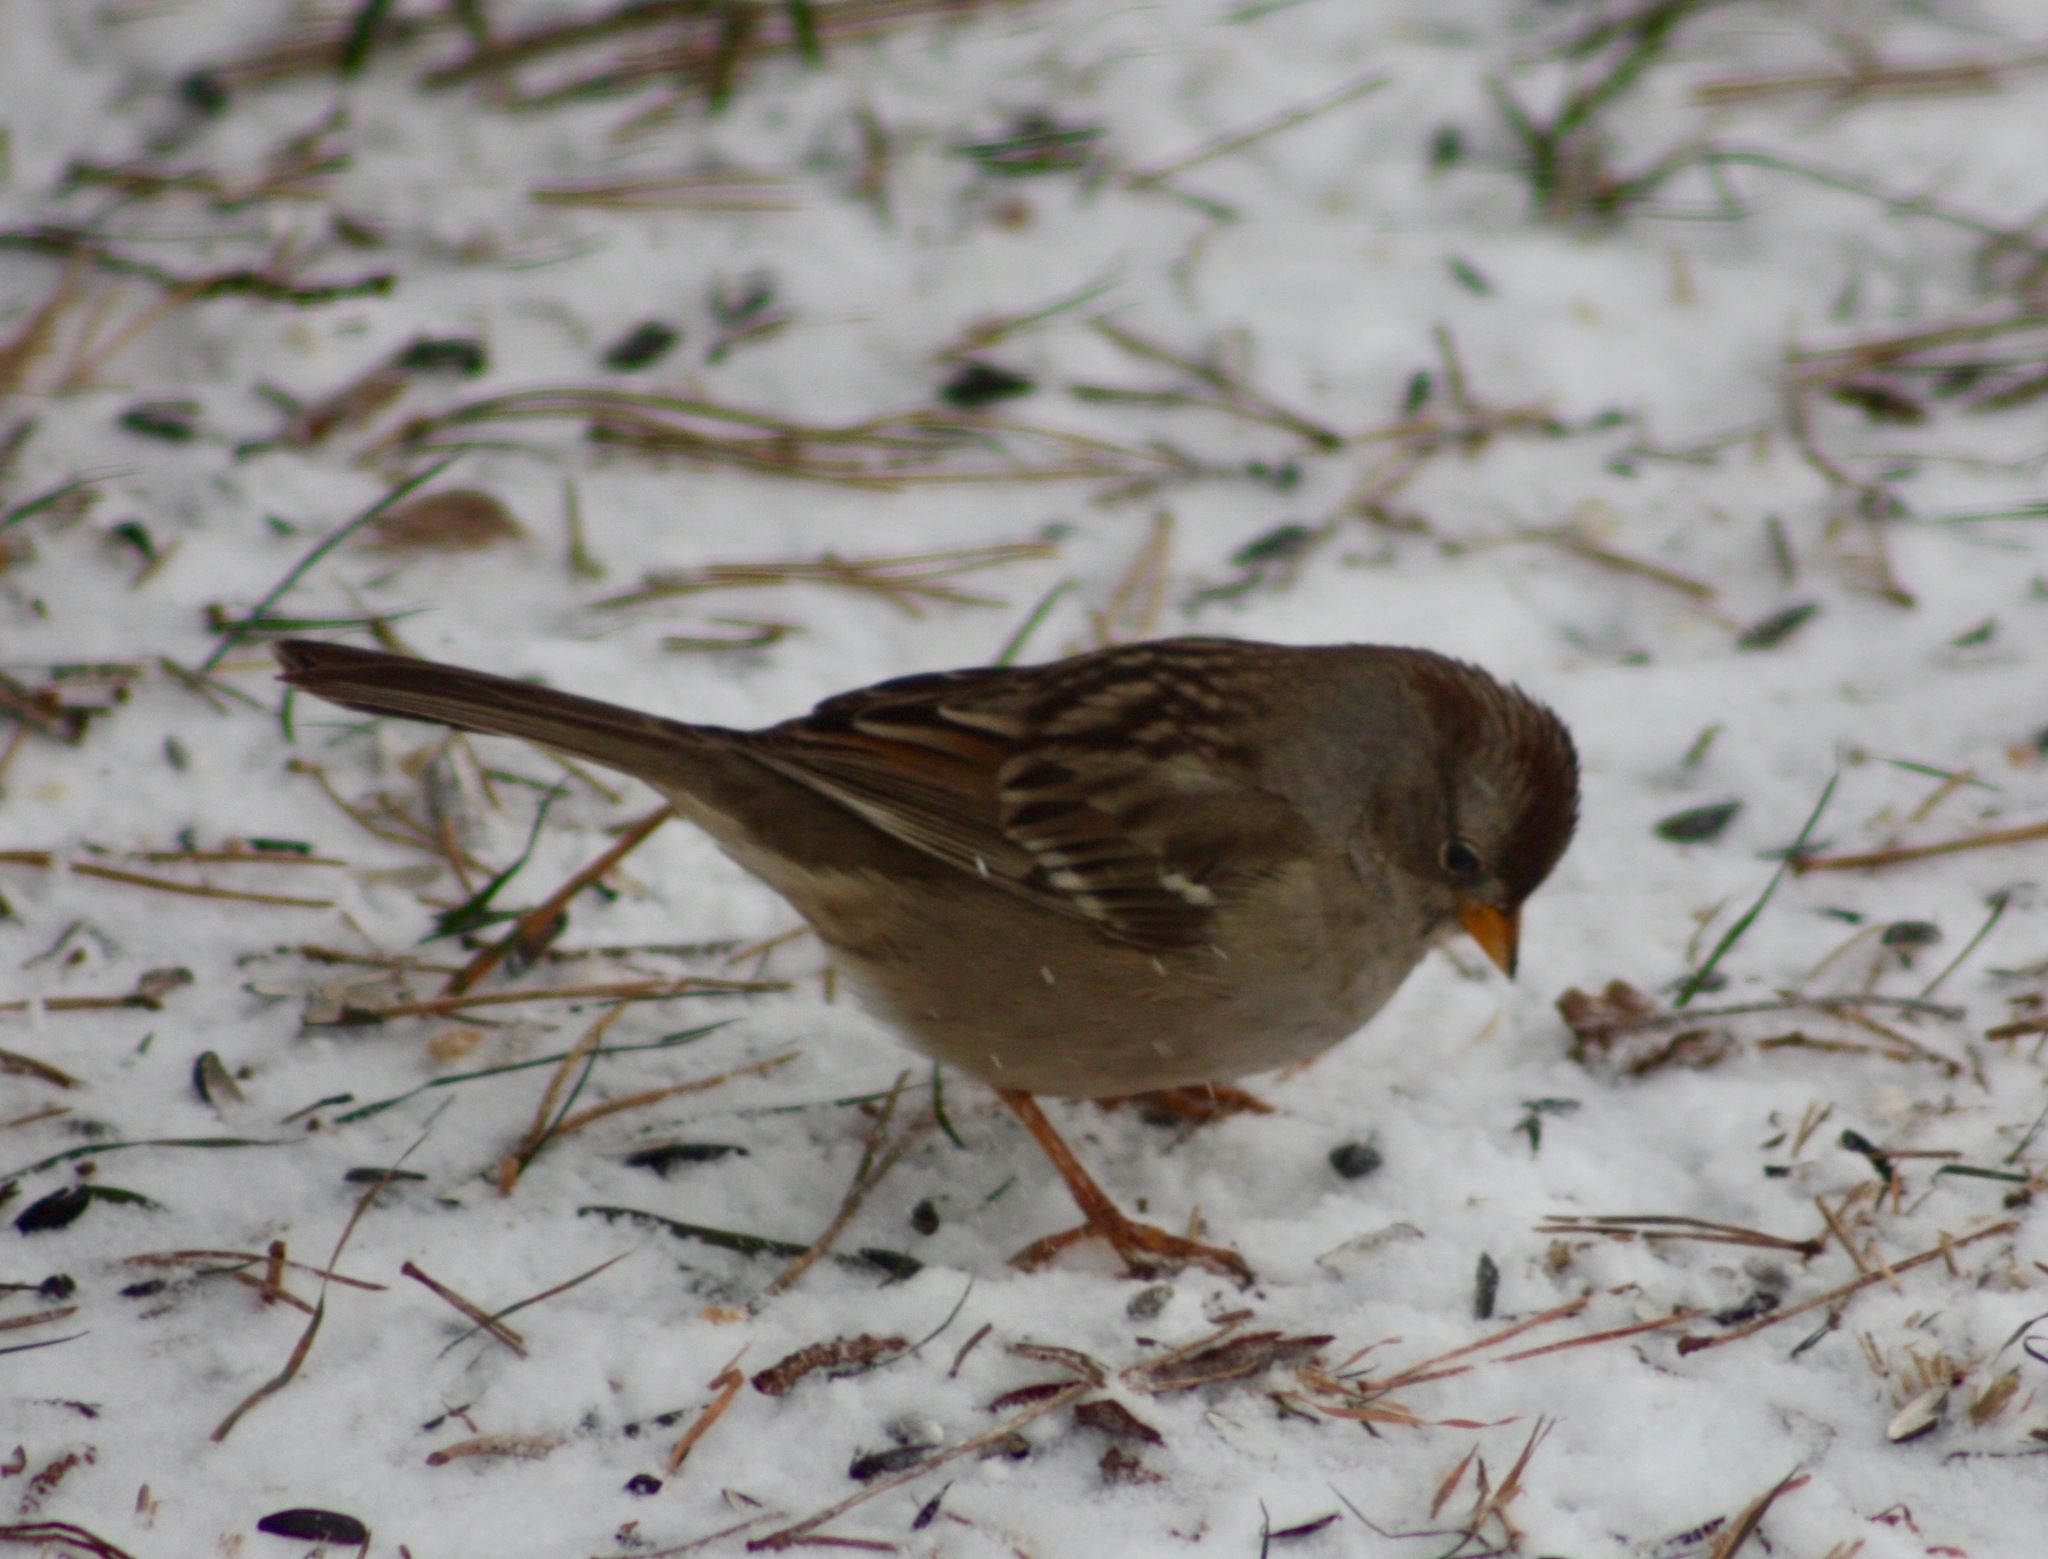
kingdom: Animalia
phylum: Chordata
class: Aves
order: Passeriformes
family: Passerellidae
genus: Zonotrichia
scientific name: Zonotrichia leucophrys
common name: White-crowned sparrow
